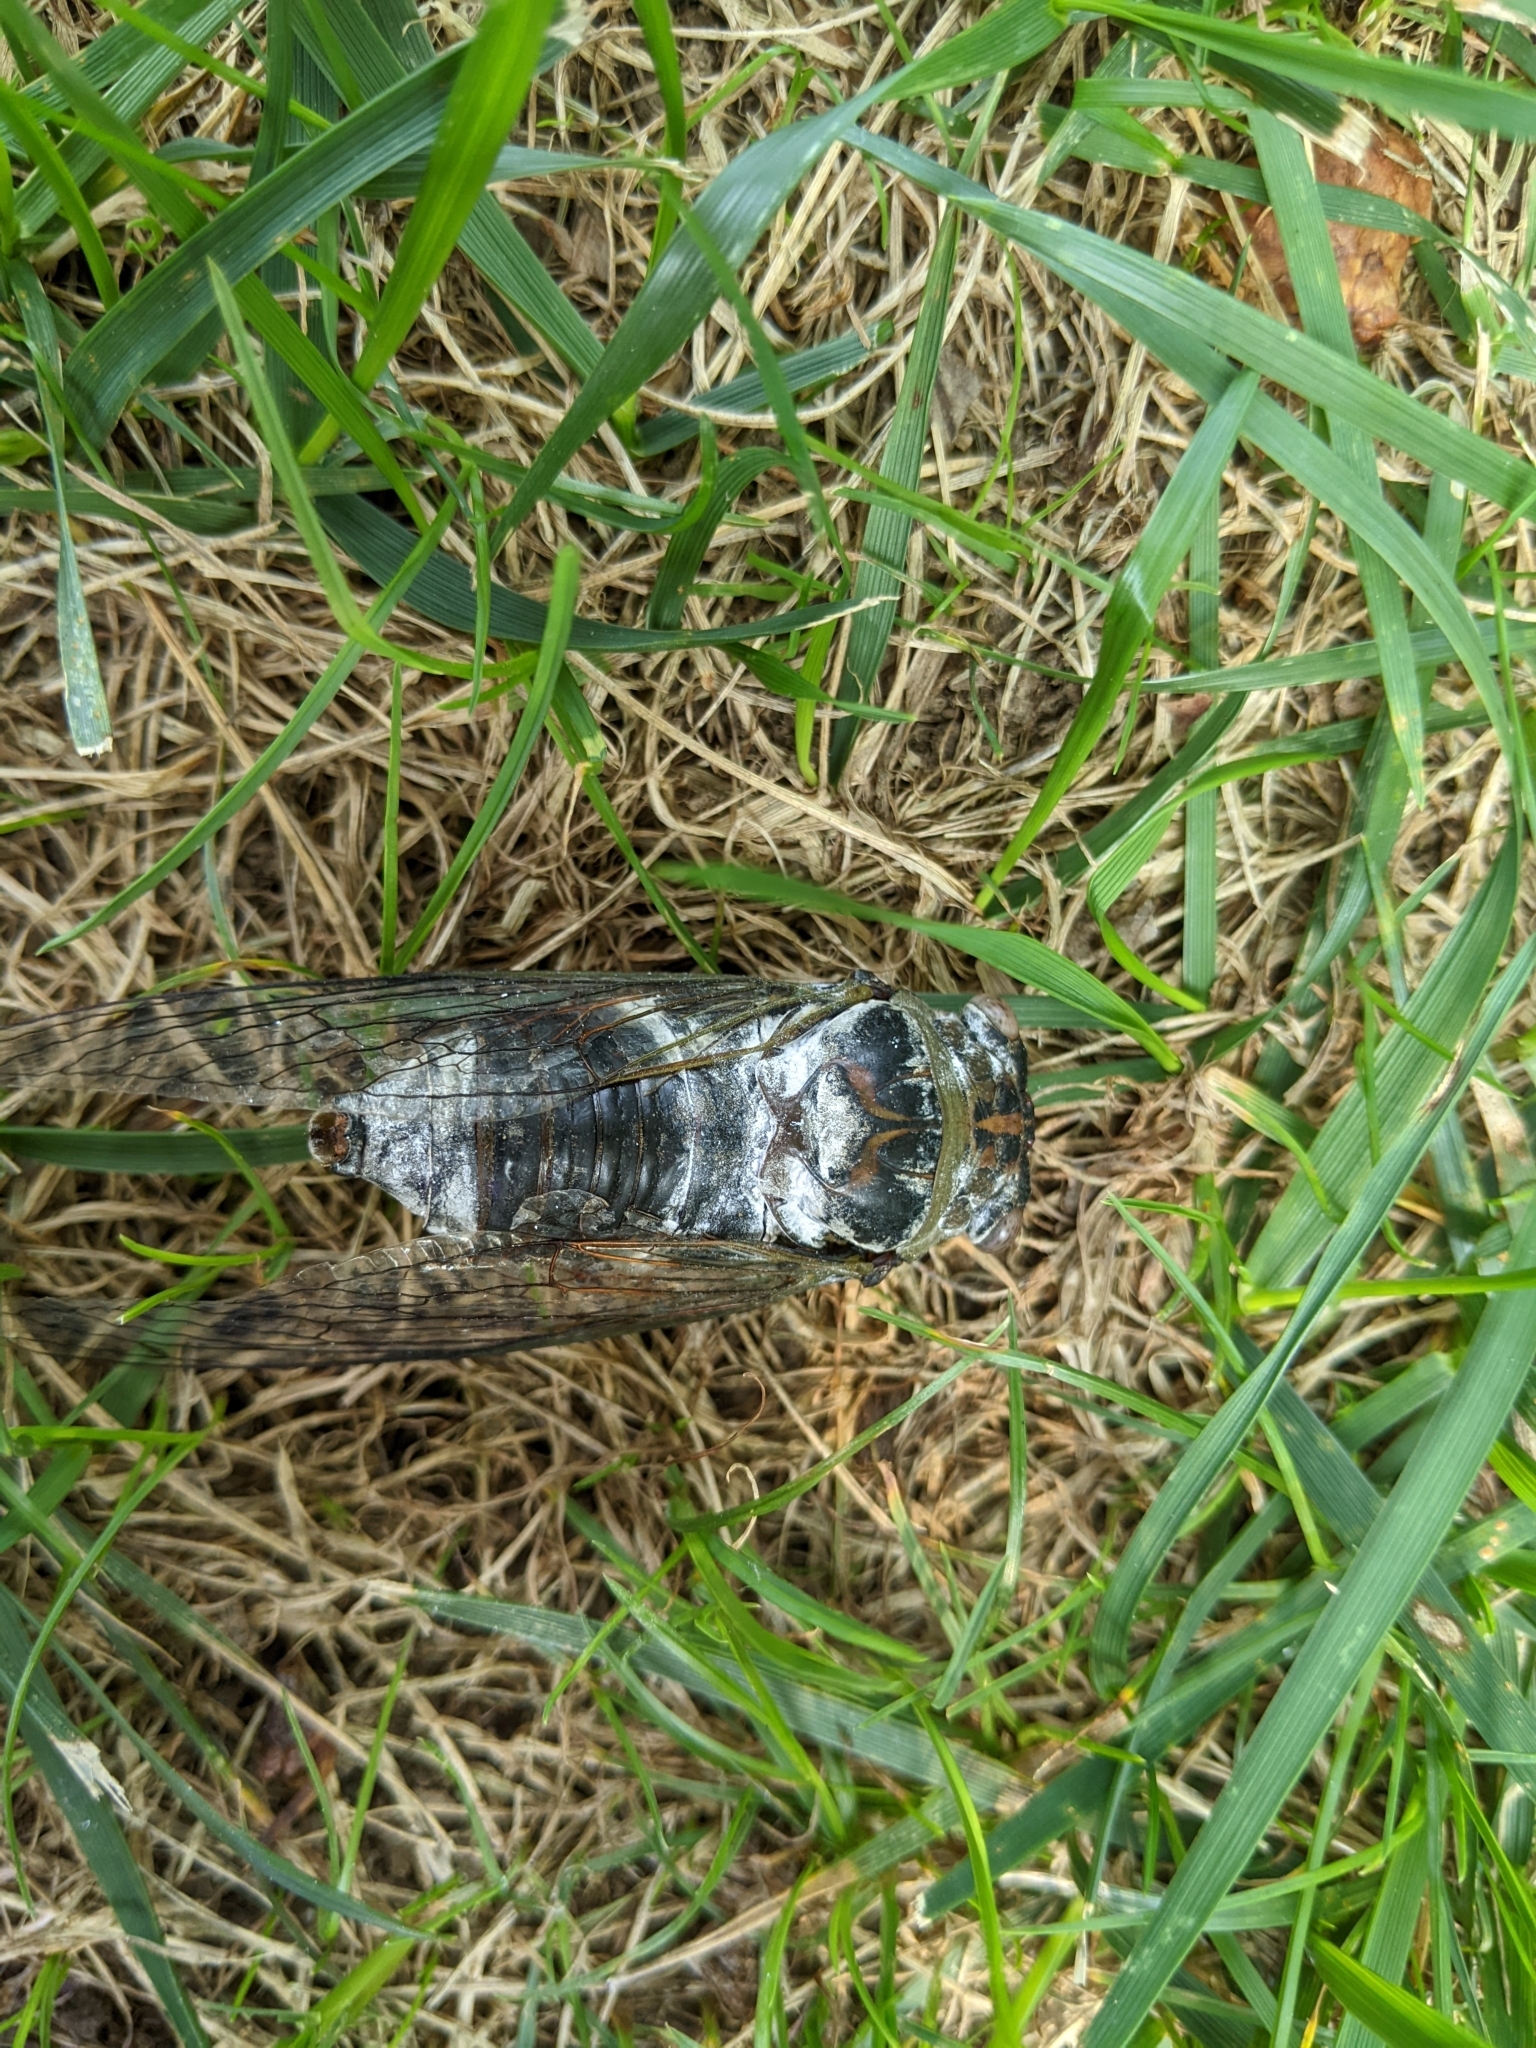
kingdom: Animalia
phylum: Arthropoda
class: Insecta
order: Hemiptera
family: Cicadidae
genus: Diceroprocta
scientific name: Diceroprocta grossa
